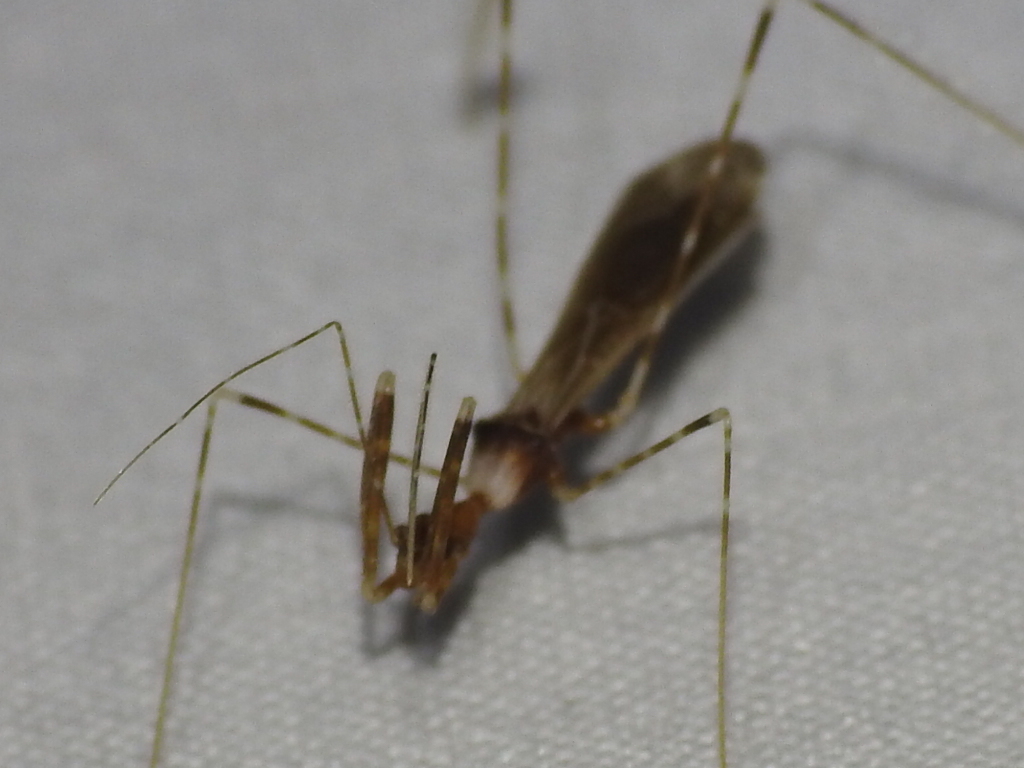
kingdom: Animalia
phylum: Arthropoda
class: Insecta
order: Hemiptera
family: Reduviidae
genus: Stenolemoides
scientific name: Stenolemoides arizonensis
